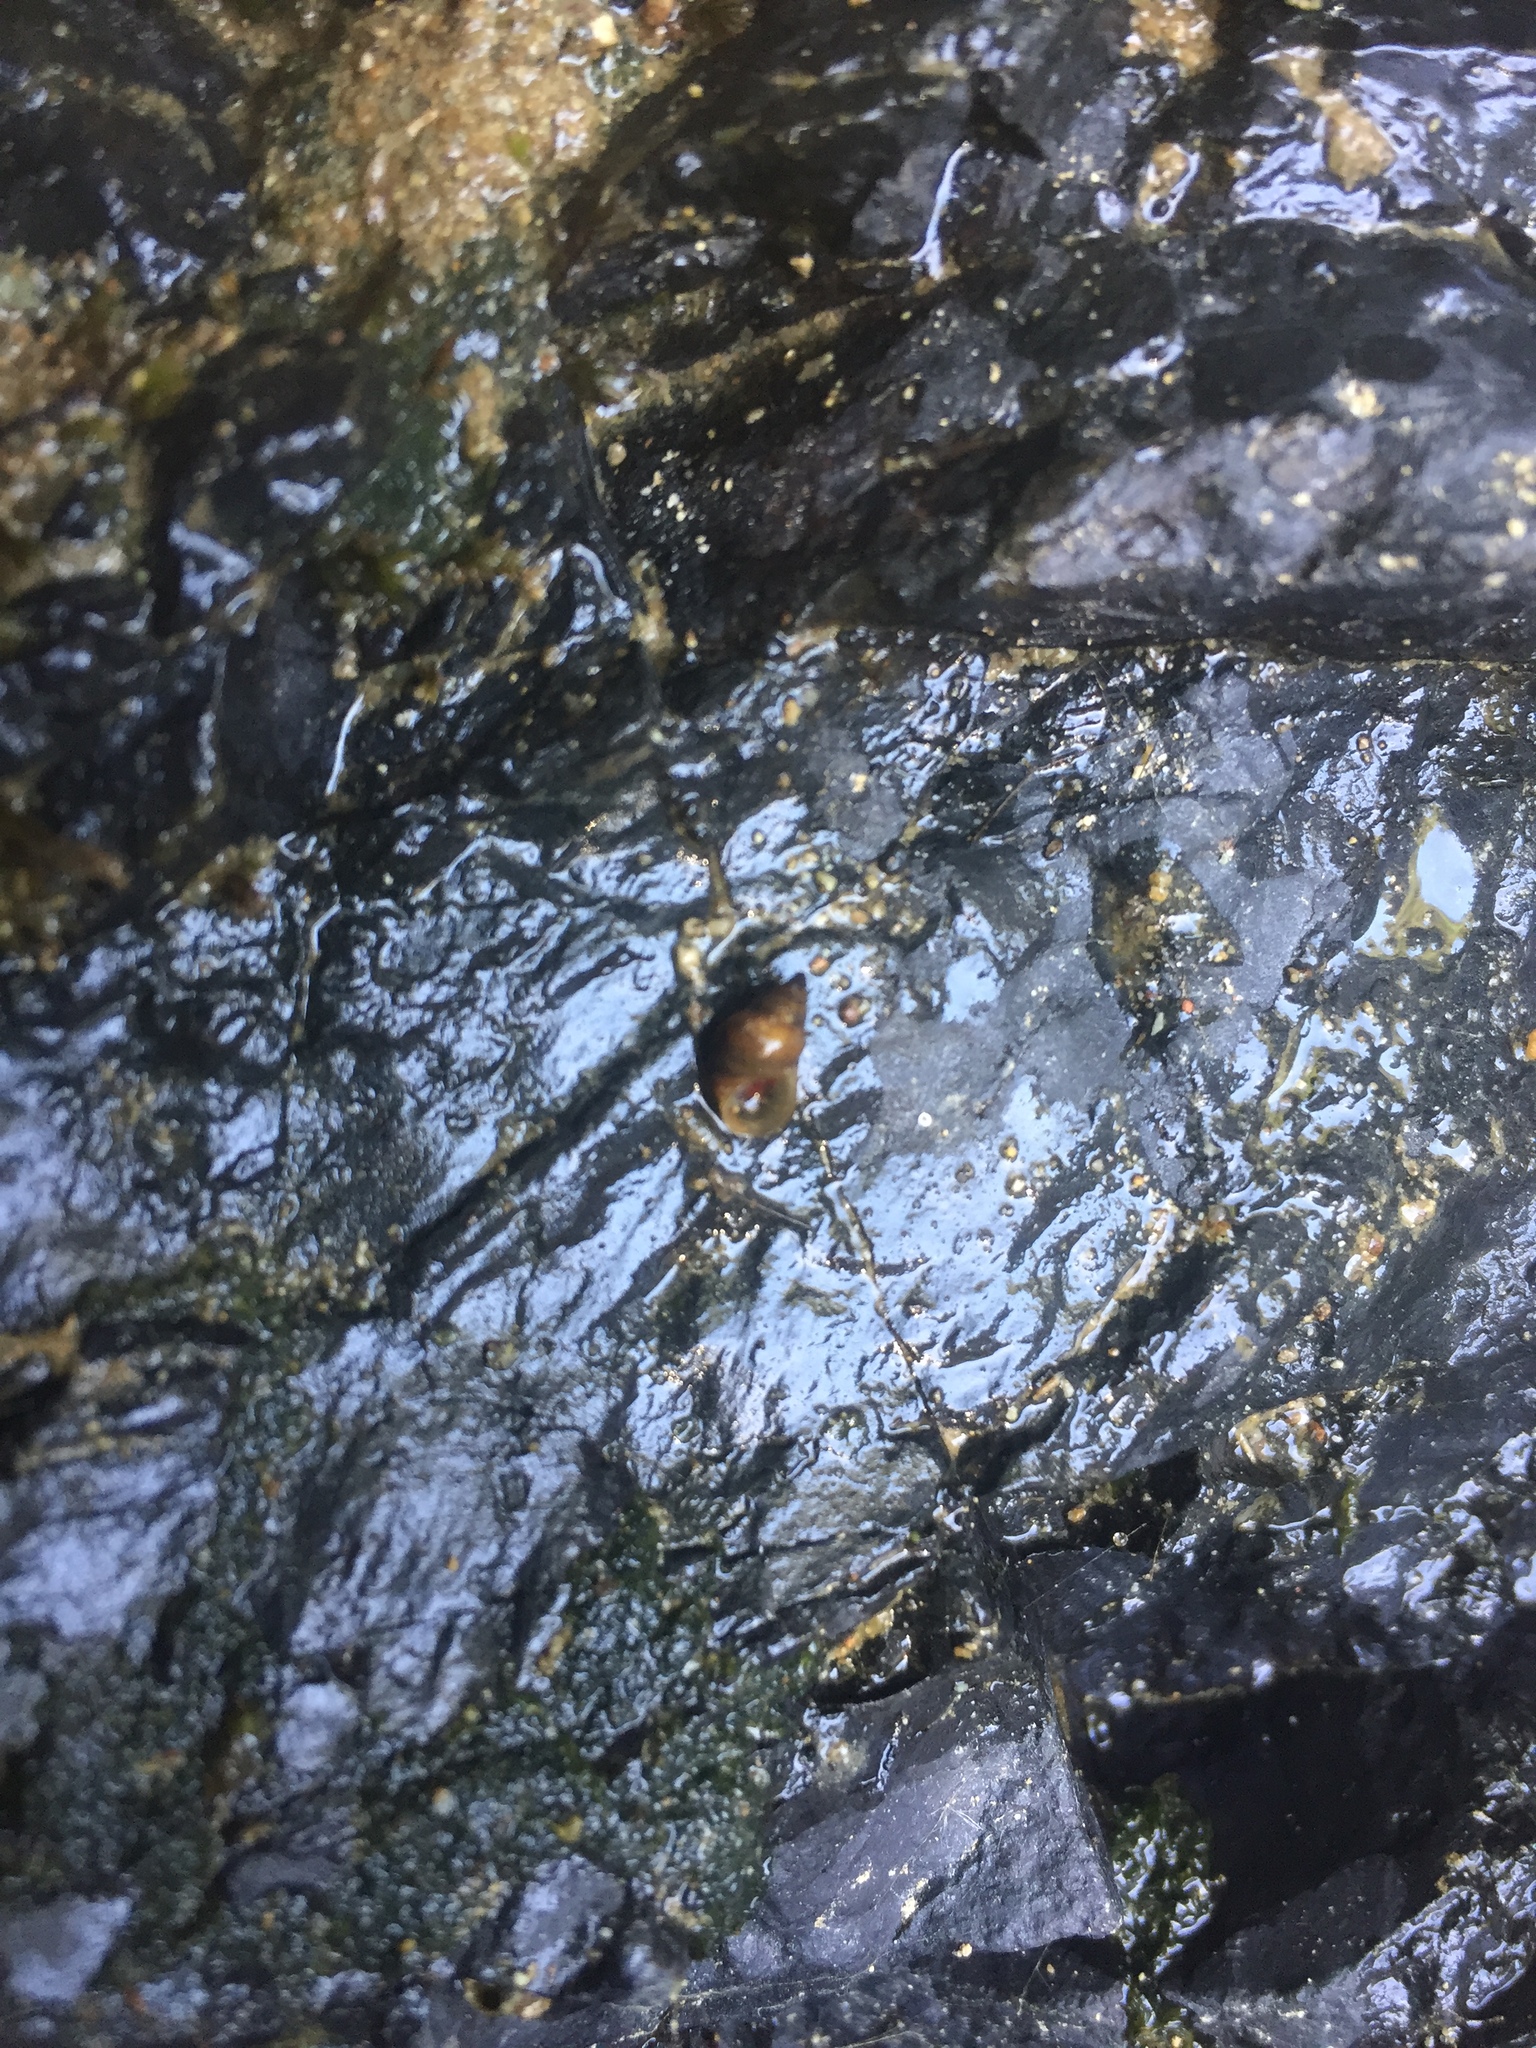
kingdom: Animalia
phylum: Mollusca
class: Gastropoda
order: Littorinimorpha
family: Tateidae
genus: Potamopyrgus
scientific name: Potamopyrgus antipodarum
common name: Jenkins' spire snail
